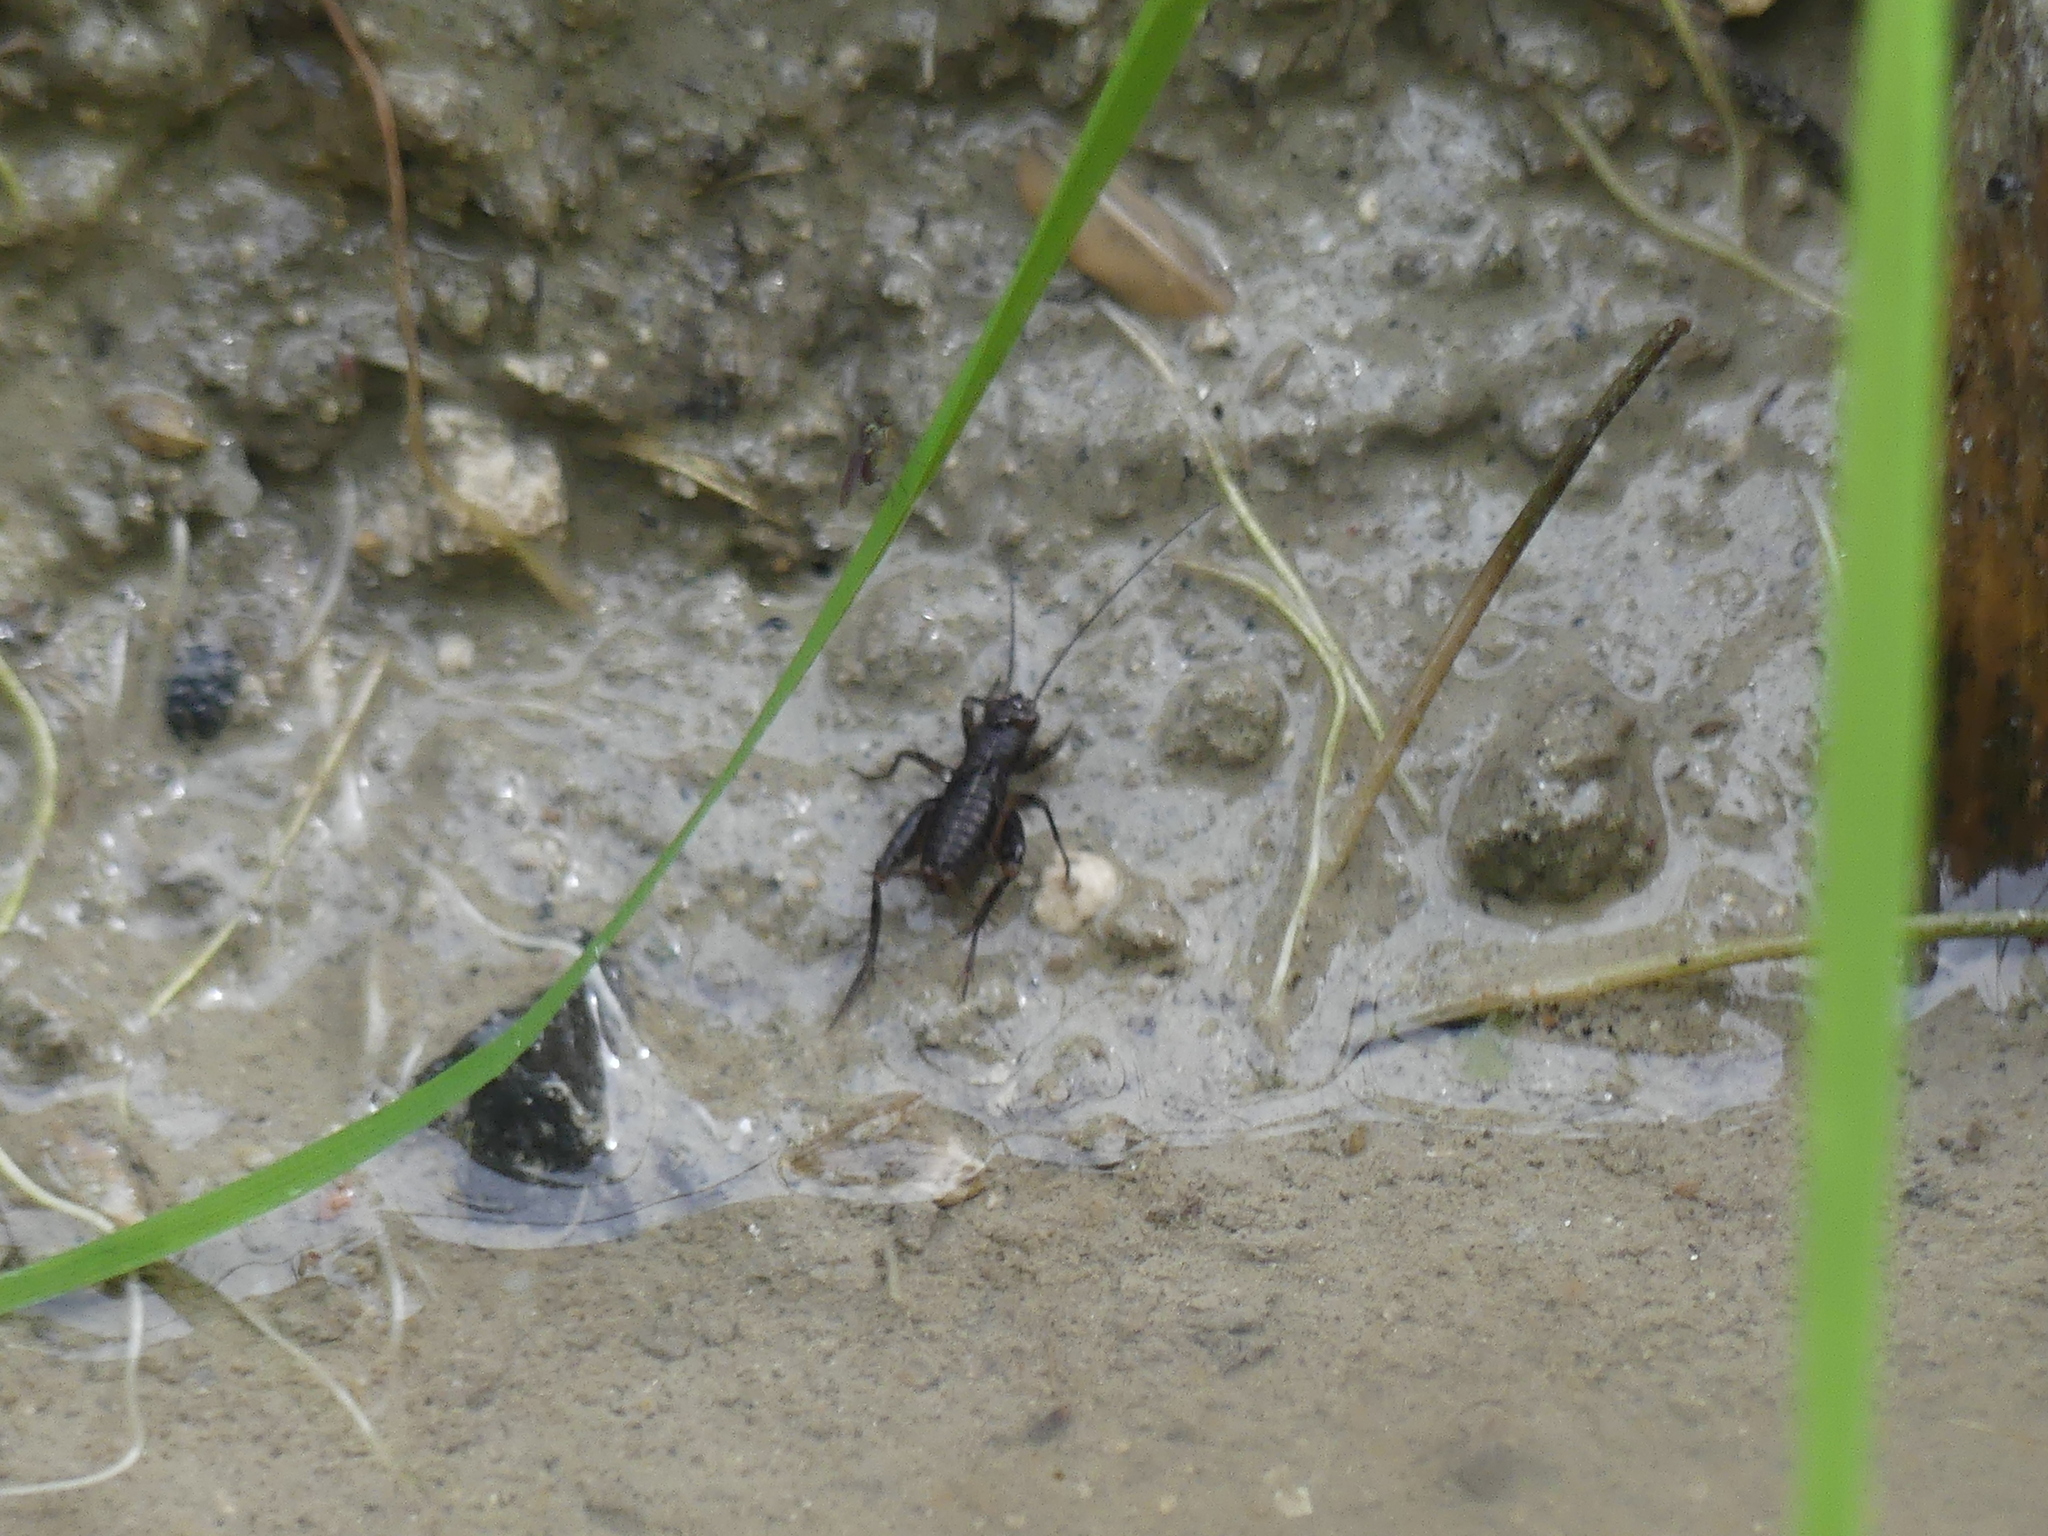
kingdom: Animalia
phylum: Arthropoda
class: Insecta
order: Orthoptera
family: Trigonidiidae
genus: Pteronemobius
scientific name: Pteronemobius heydenii
